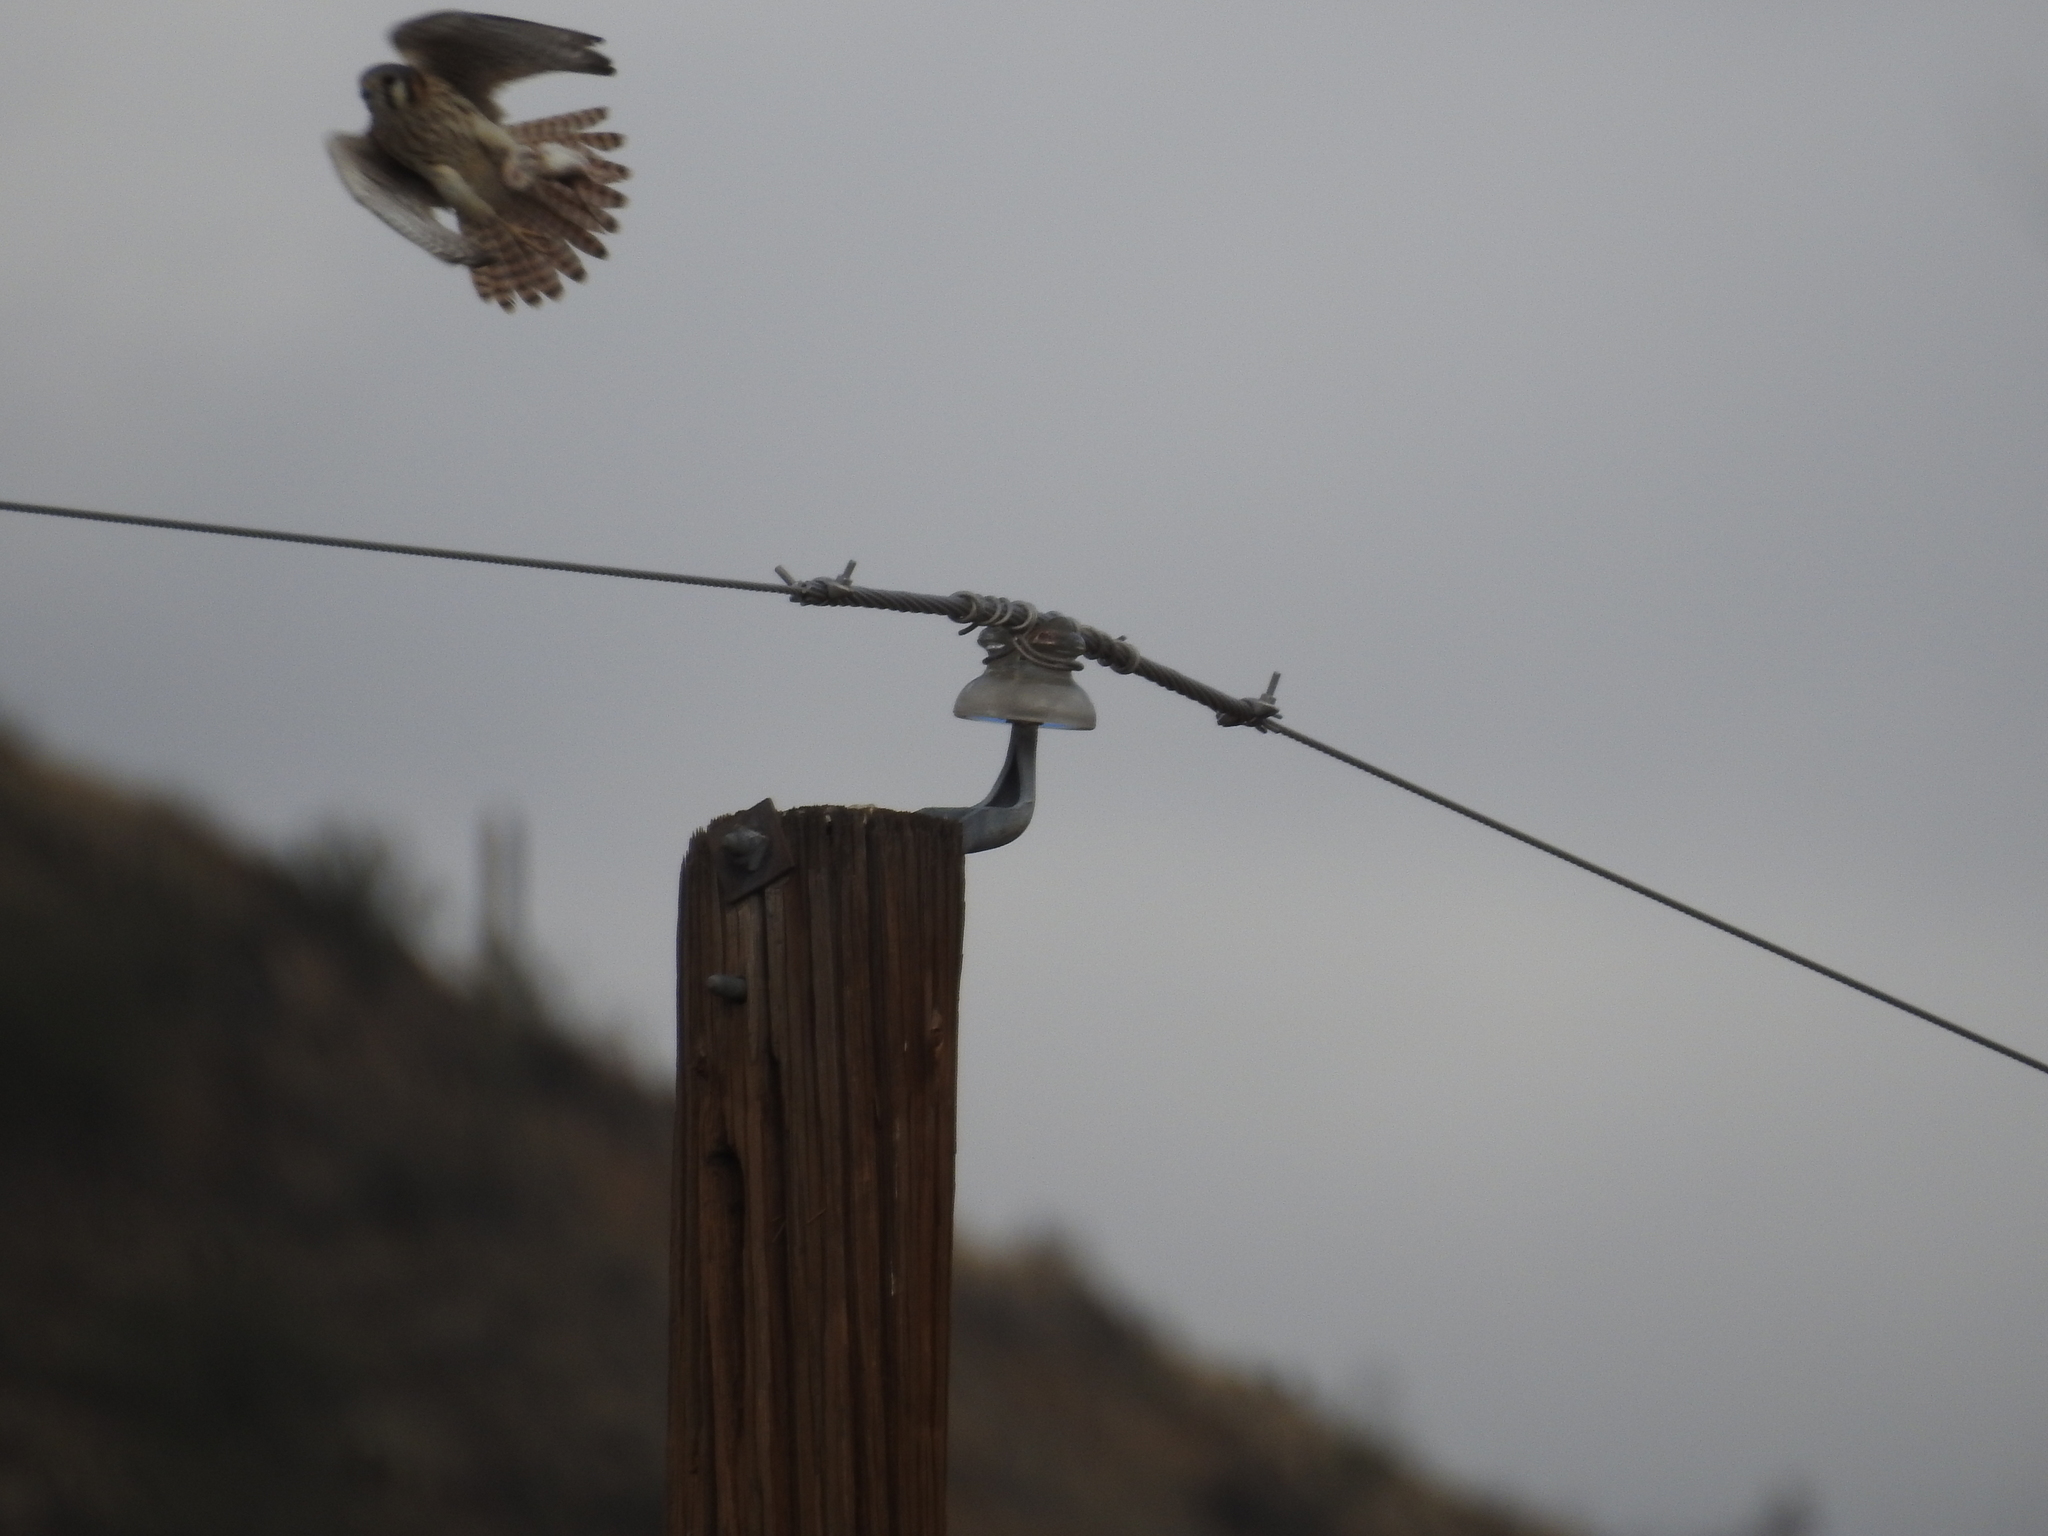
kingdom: Animalia
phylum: Chordata
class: Aves
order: Falconiformes
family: Falconidae
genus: Falco
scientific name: Falco sparverius
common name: American kestrel
